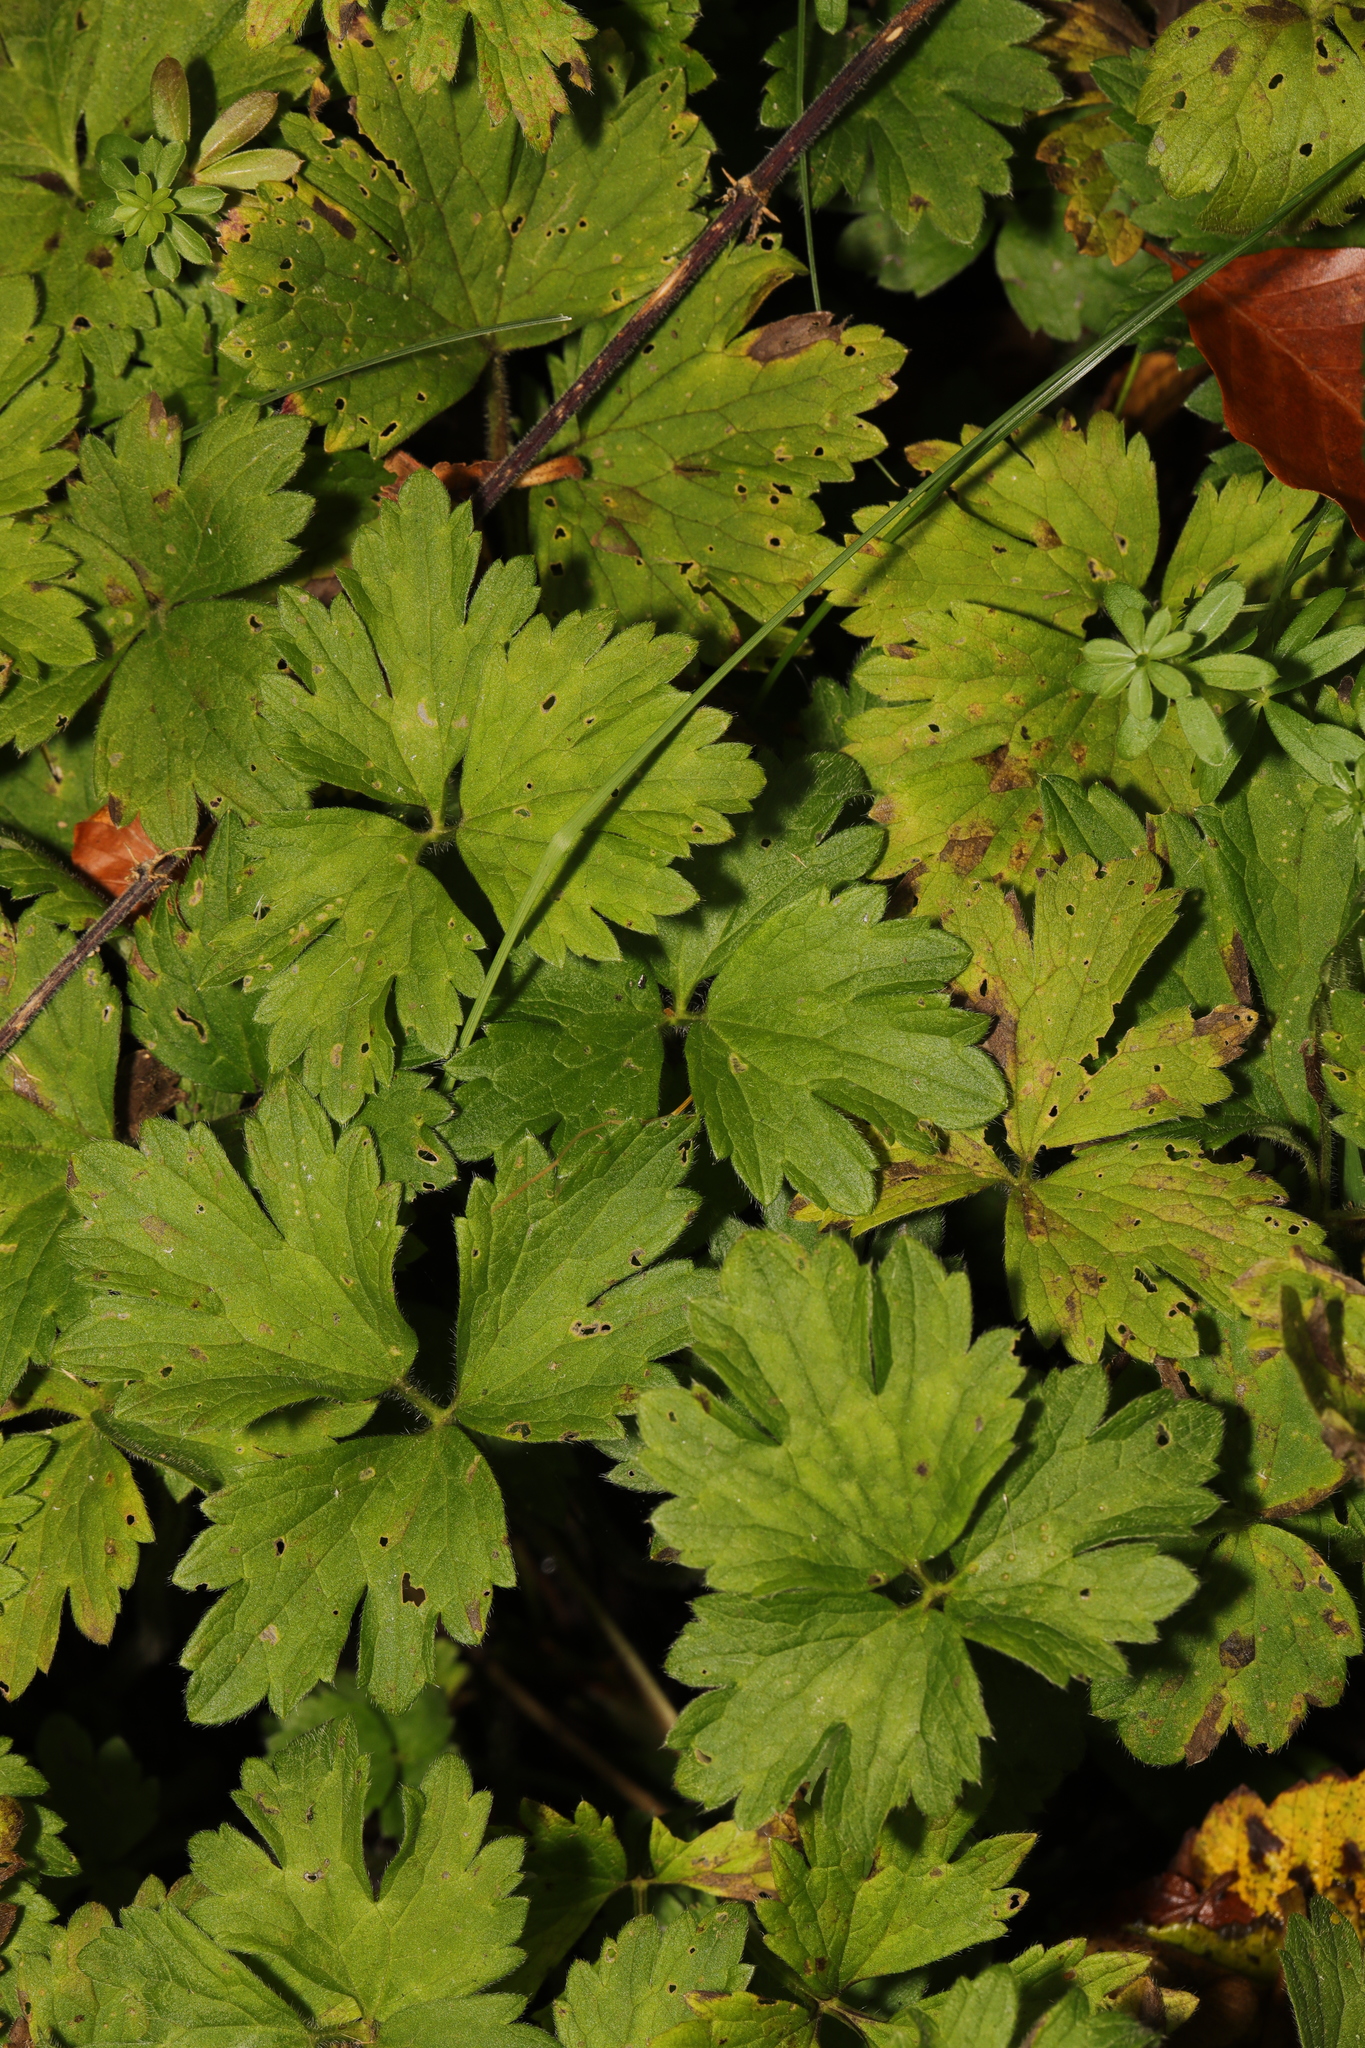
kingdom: Plantae
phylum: Tracheophyta
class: Magnoliopsida
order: Ranunculales
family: Ranunculaceae
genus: Ranunculus
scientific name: Ranunculus repens
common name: Creeping buttercup
